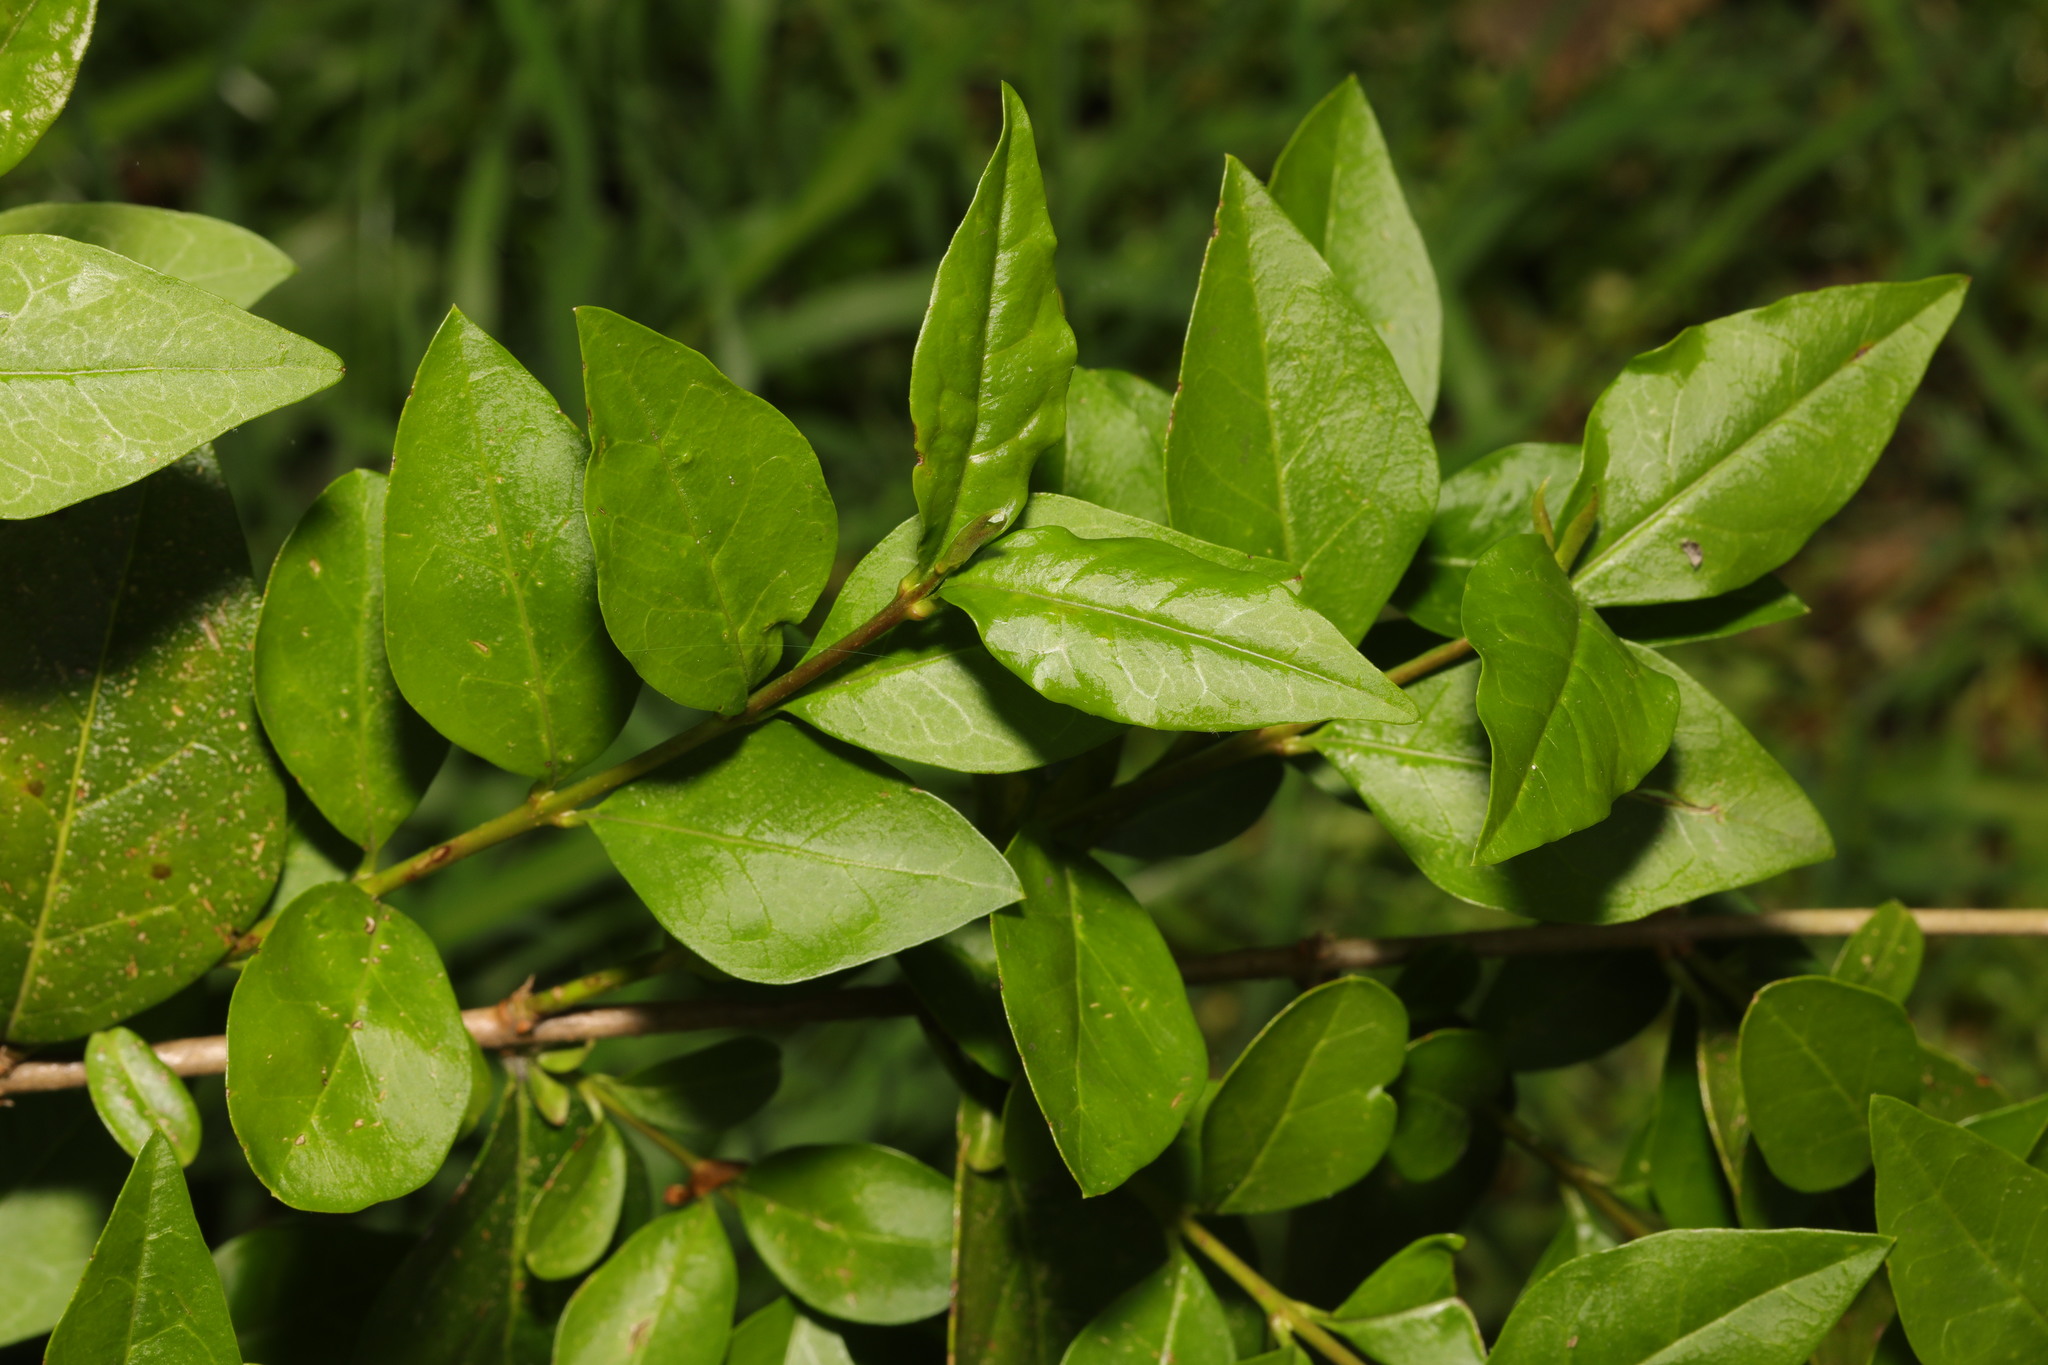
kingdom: Plantae
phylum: Tracheophyta
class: Magnoliopsida
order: Lamiales
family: Oleaceae
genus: Ligustrum
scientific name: Ligustrum ovalifolium
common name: California privet
